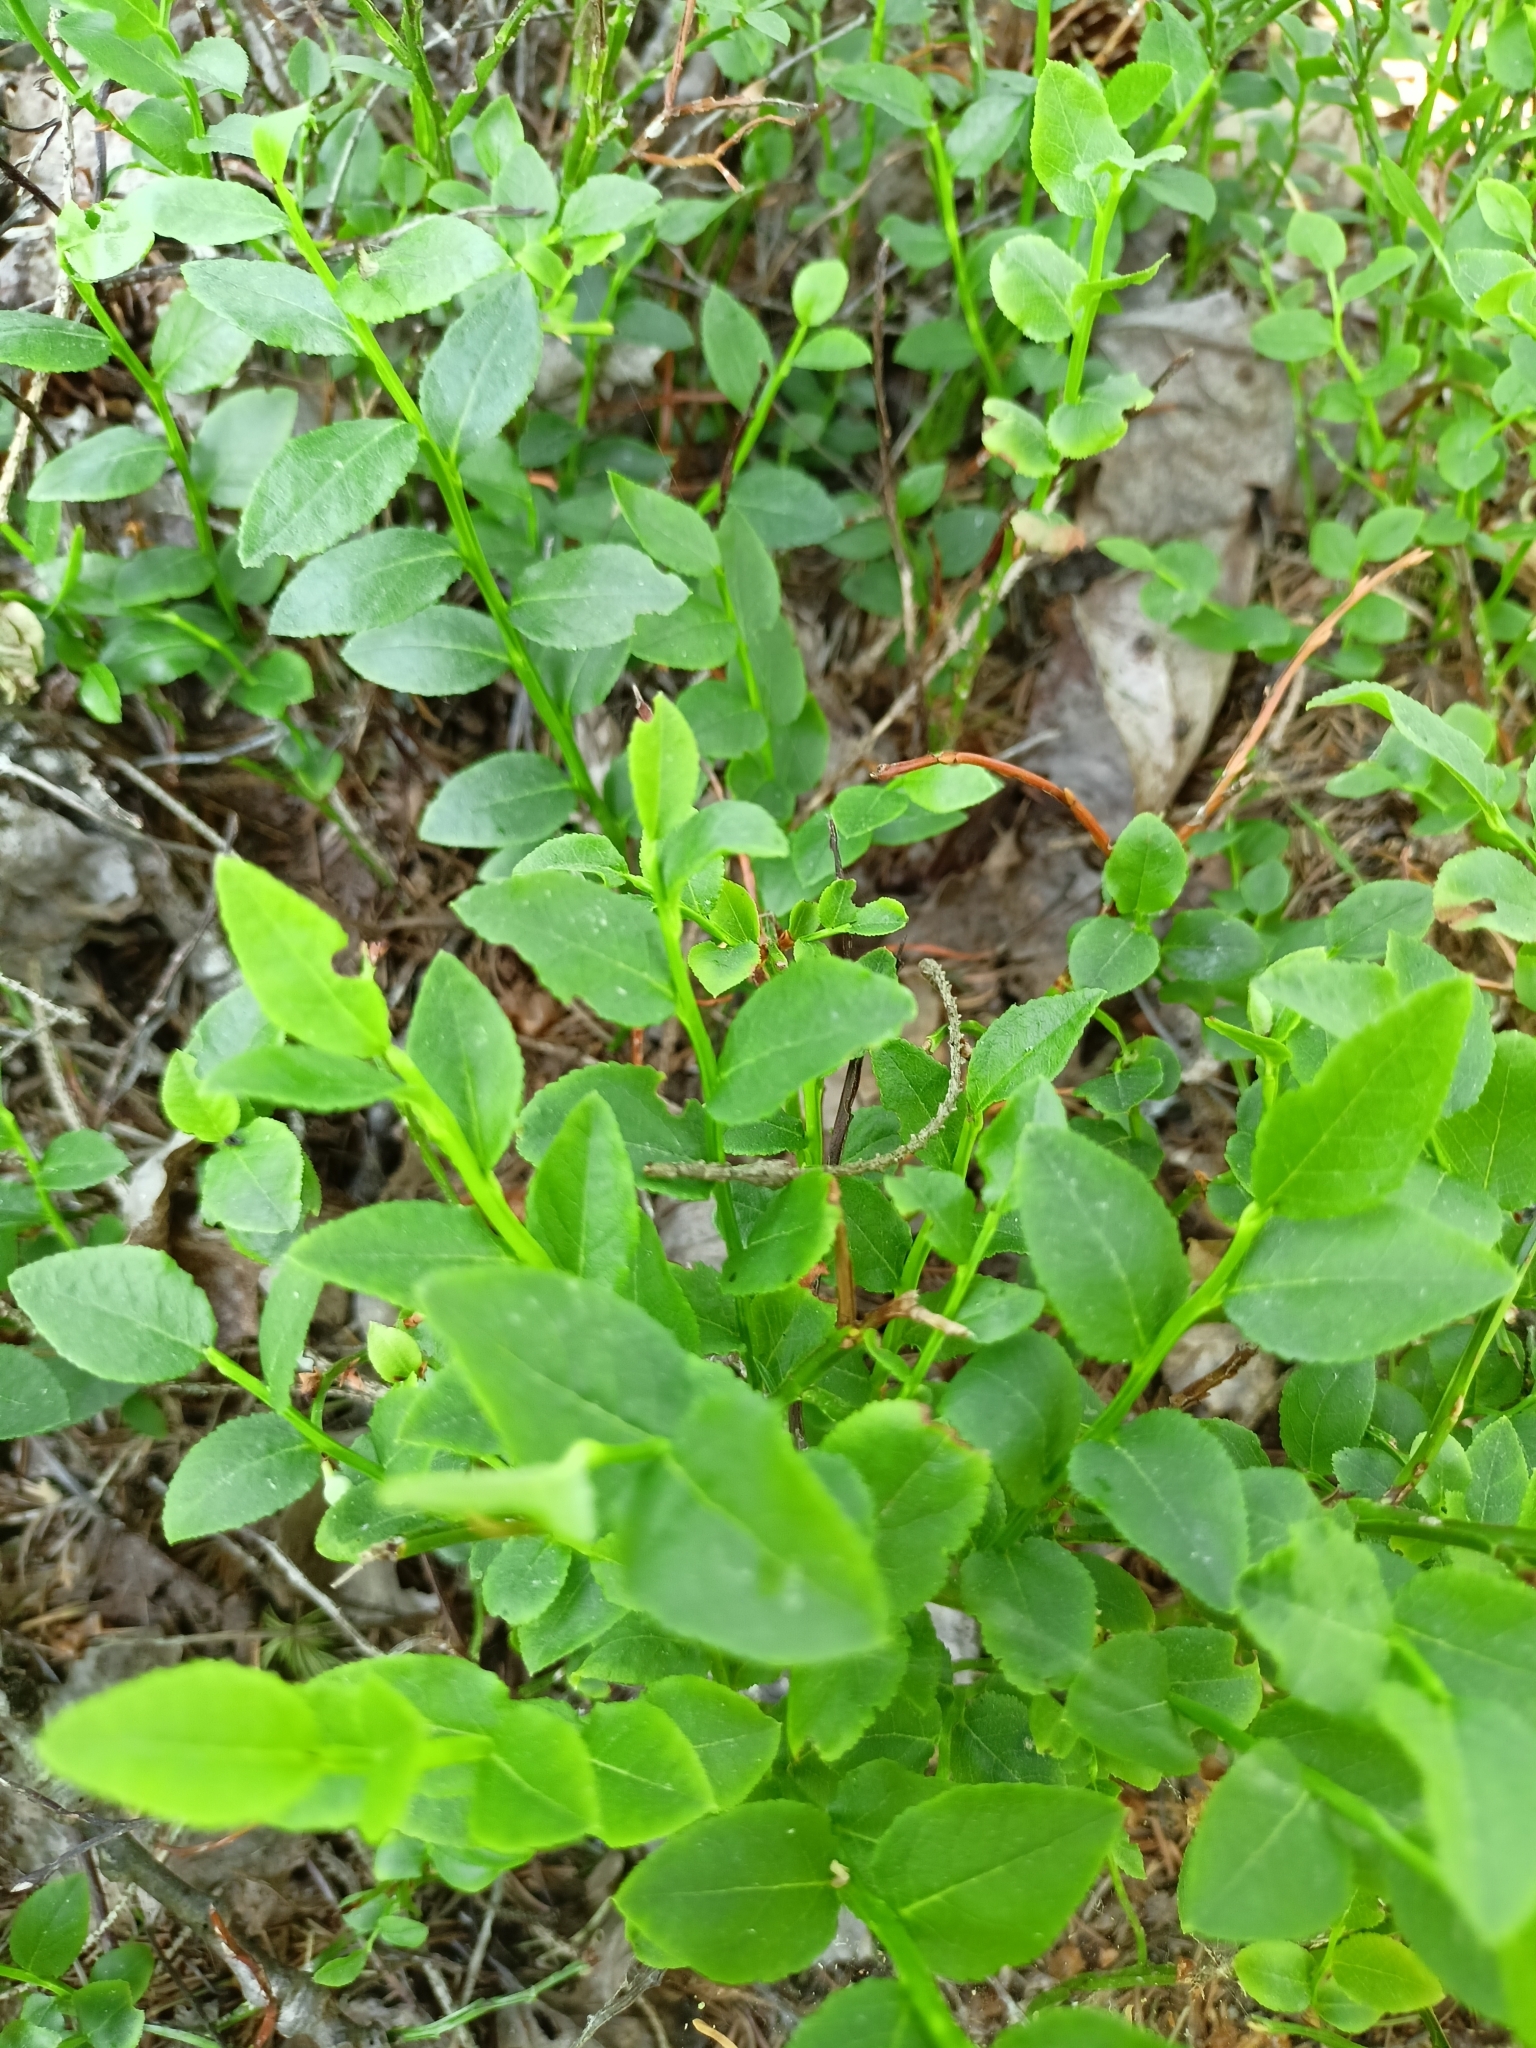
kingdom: Plantae
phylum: Tracheophyta
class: Magnoliopsida
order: Ericales
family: Ericaceae
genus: Vaccinium
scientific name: Vaccinium myrtillus
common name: Bilberry
